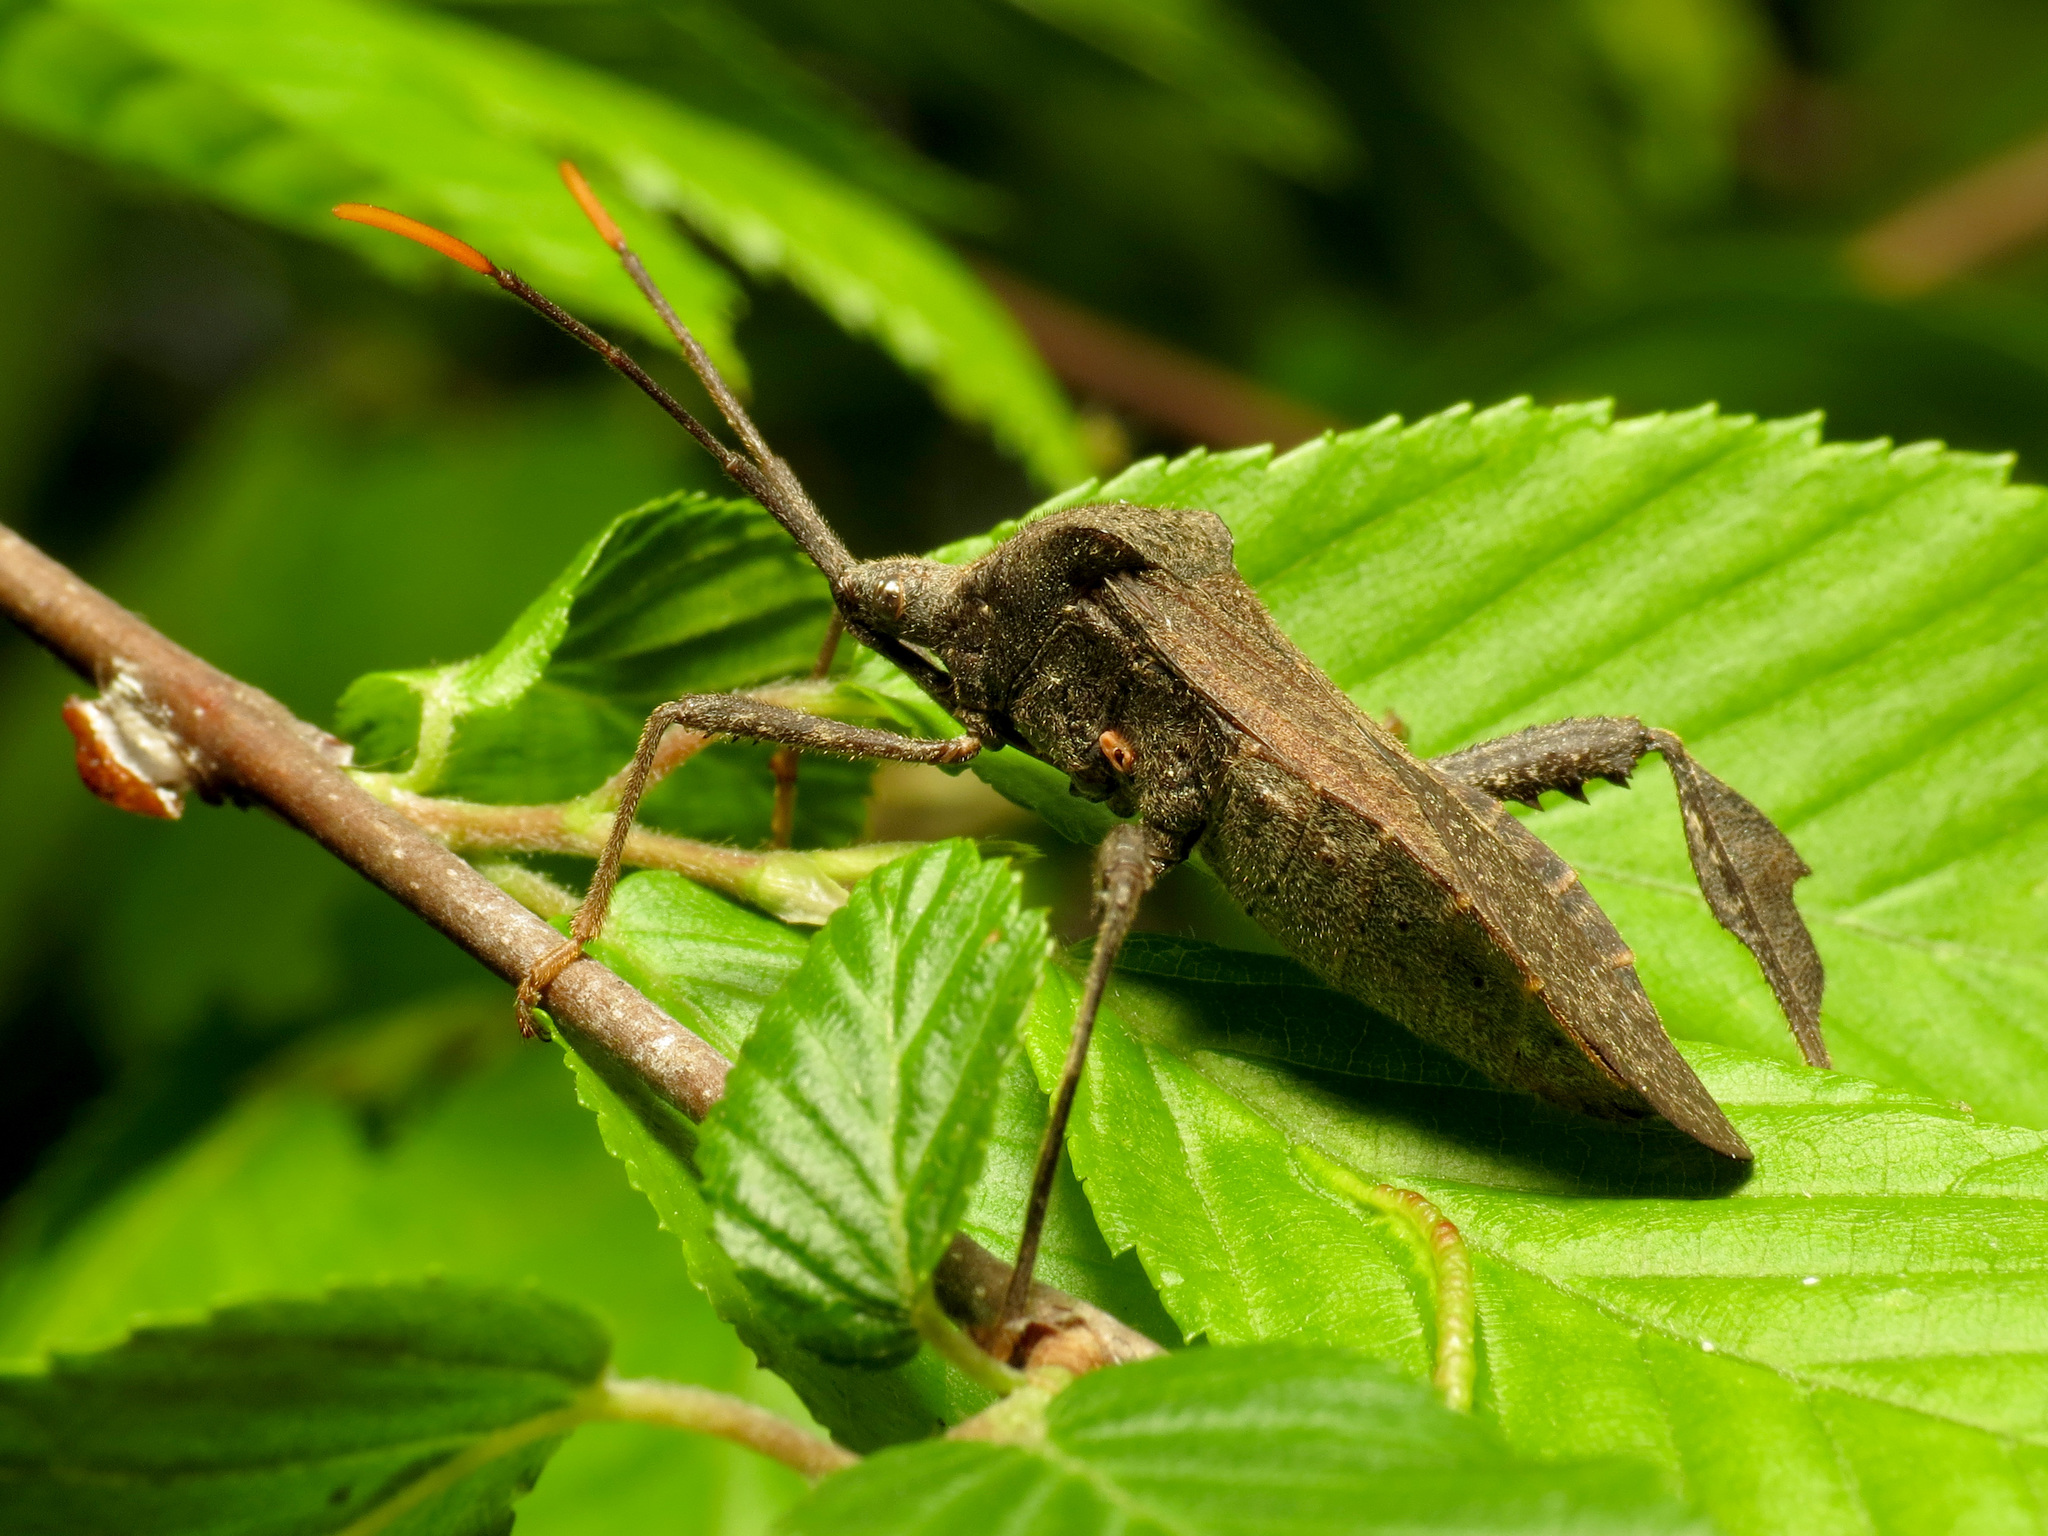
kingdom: Animalia
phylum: Arthropoda
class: Insecta
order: Hemiptera
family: Coreidae
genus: Acanthocephala
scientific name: Acanthocephala terminalis
